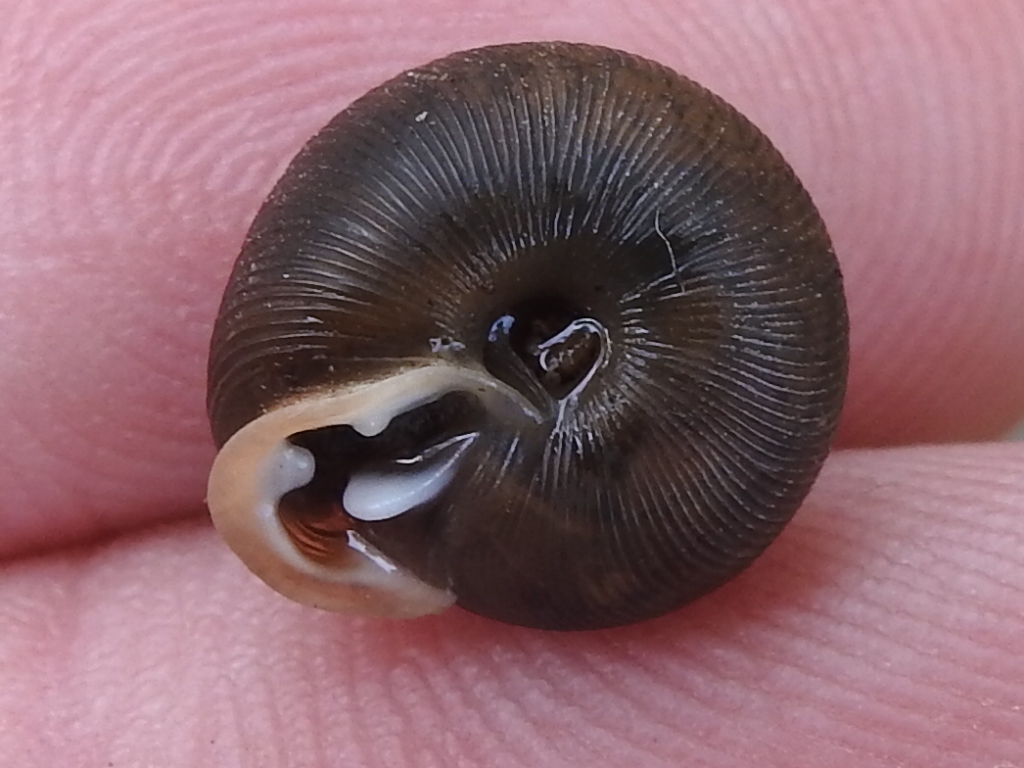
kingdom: Animalia
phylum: Mollusca
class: Gastropoda
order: Stylommatophora
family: Polygyridae
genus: Triodopsis
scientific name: Triodopsis hopetonensis
